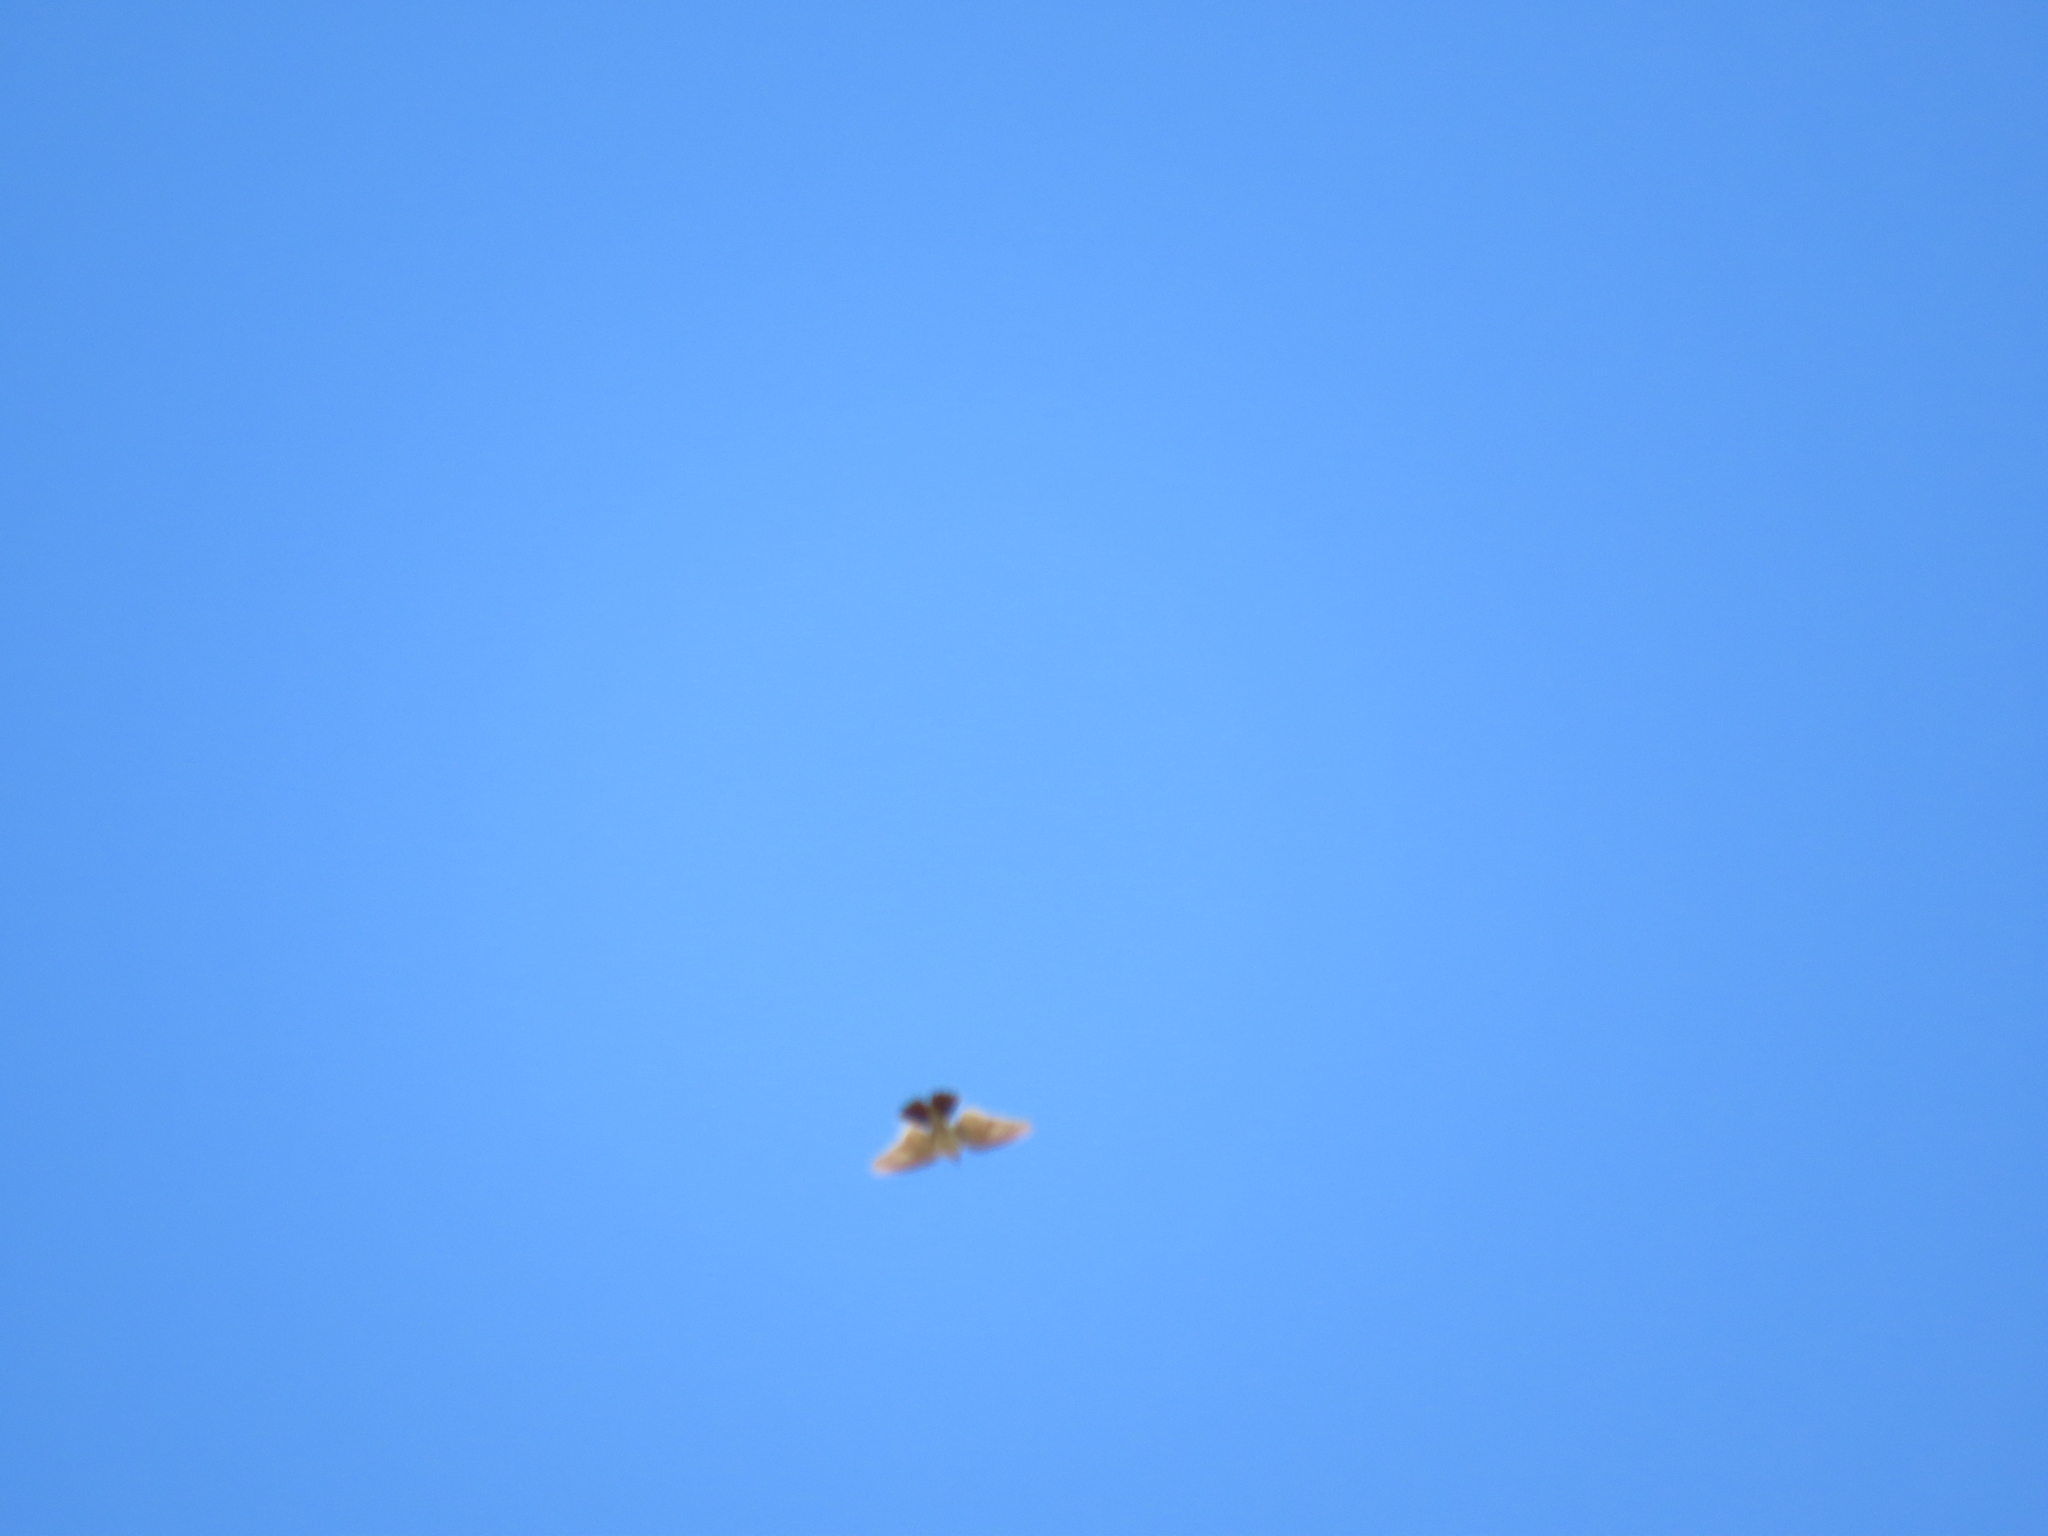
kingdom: Animalia
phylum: Chordata
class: Aves
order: Falconiformes
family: Falconidae
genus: Falco
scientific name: Falco sparverius
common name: American kestrel
